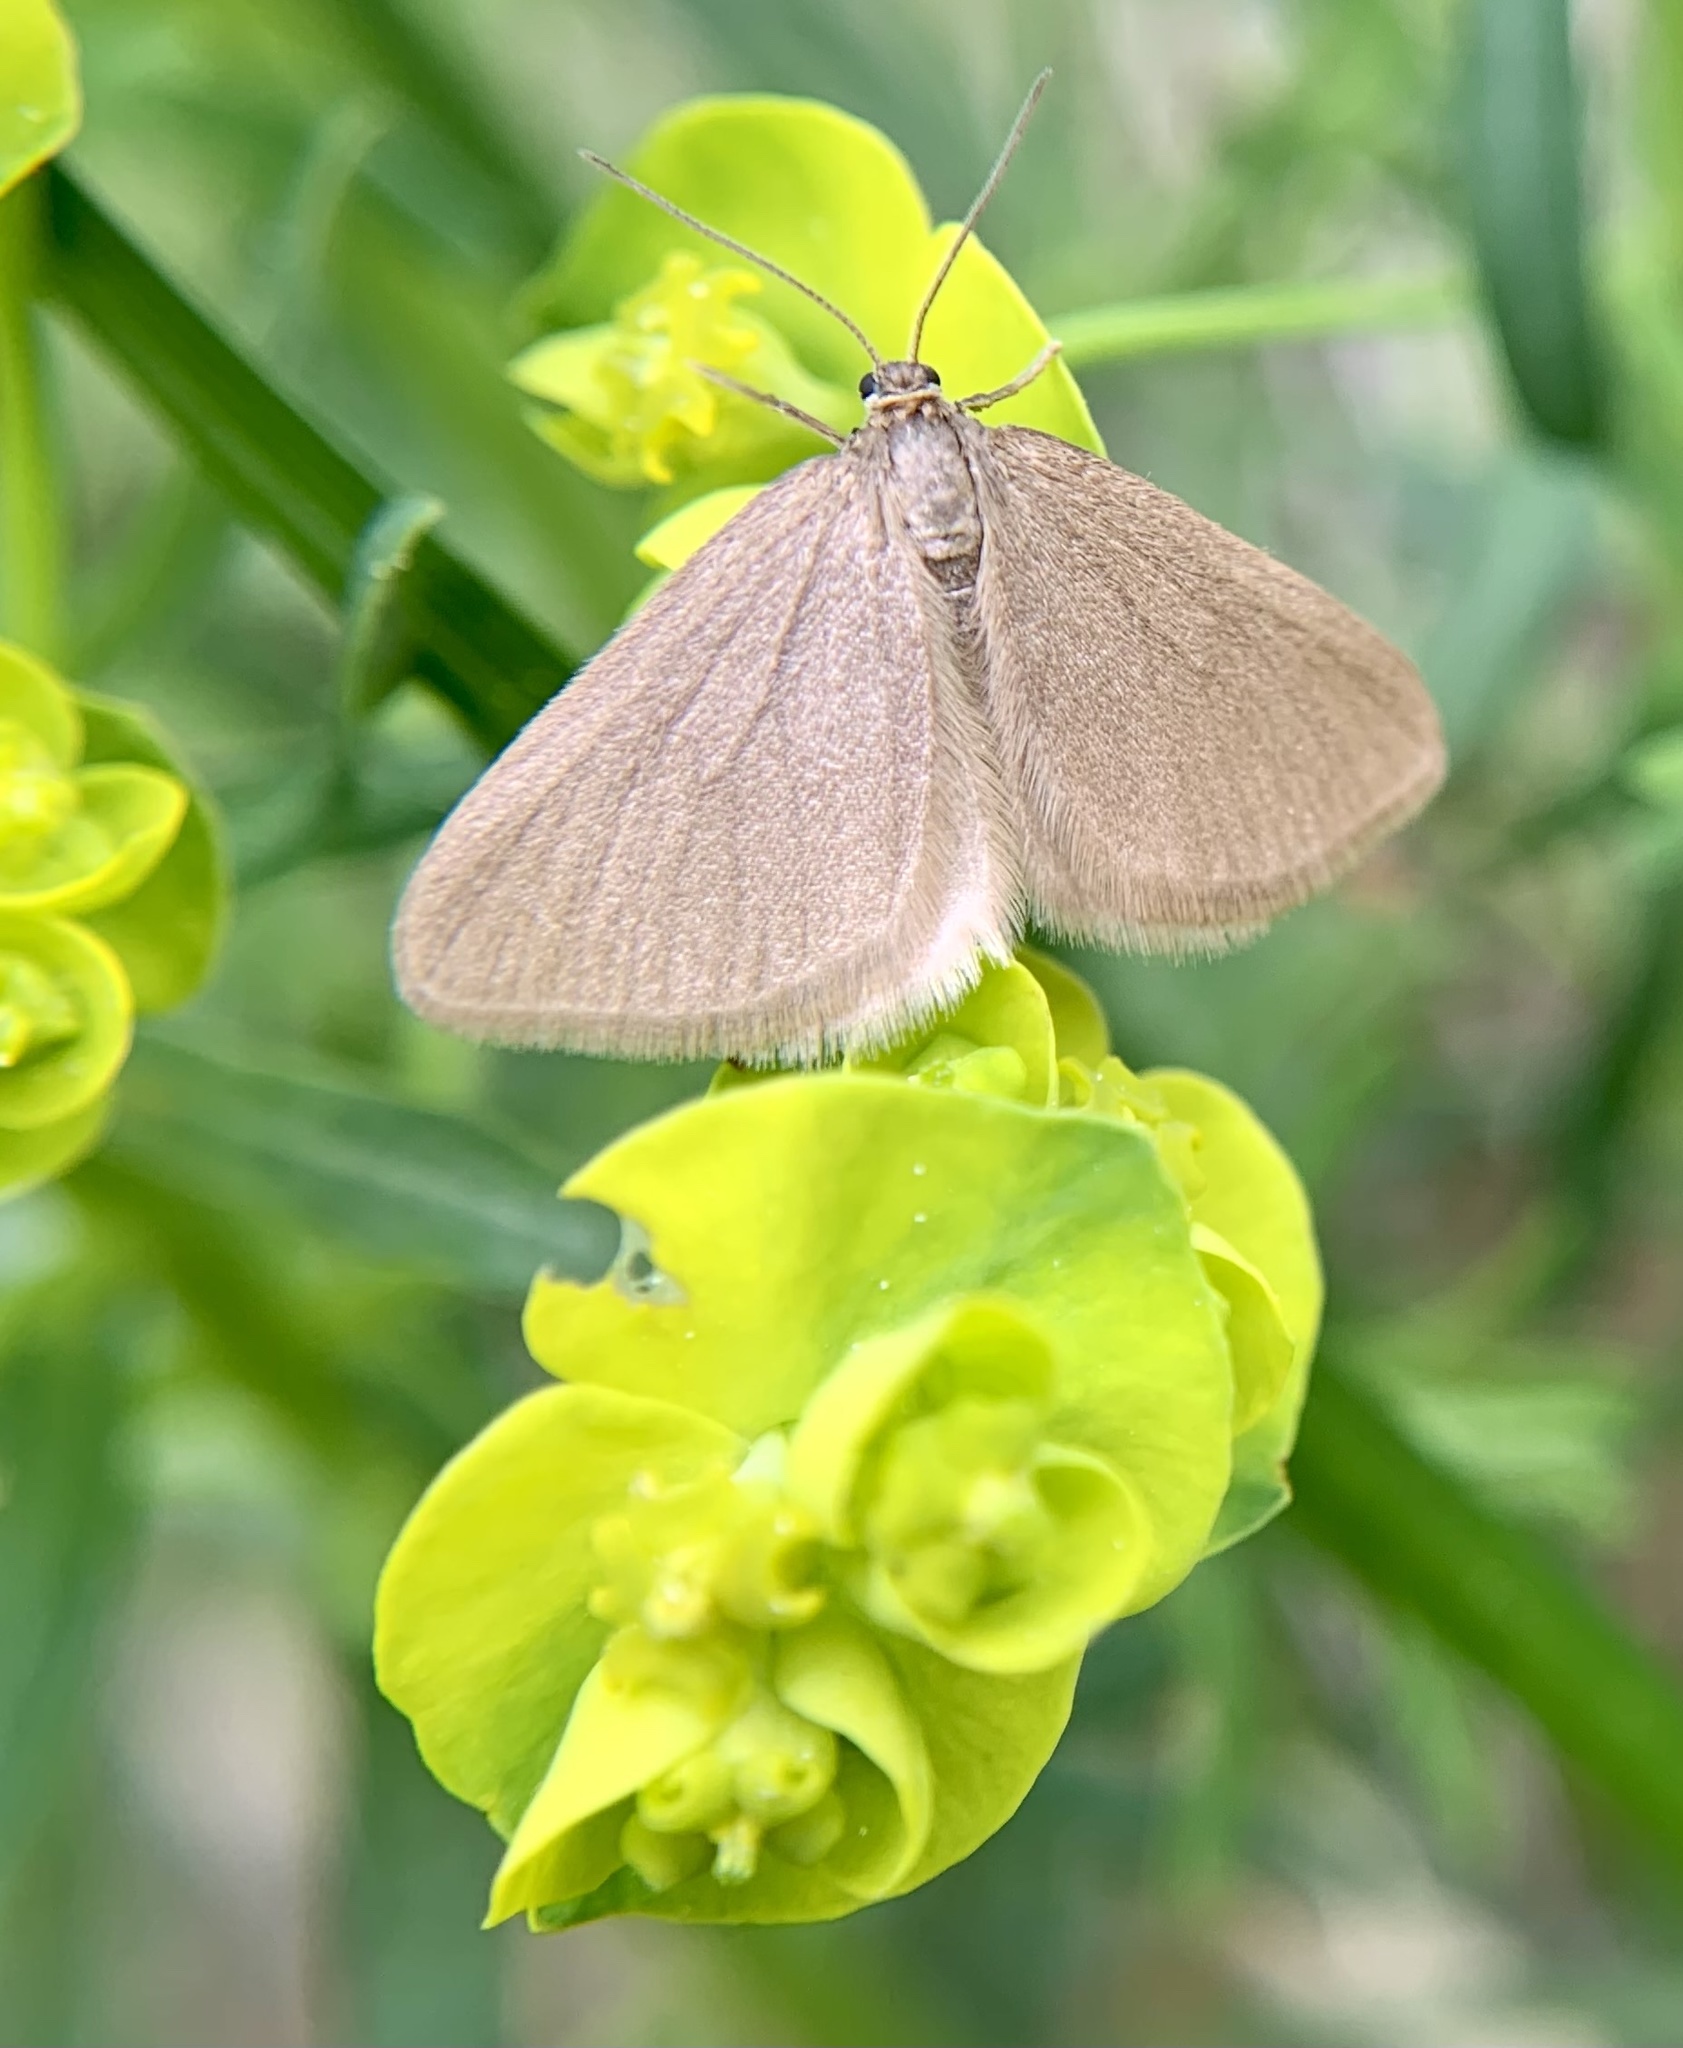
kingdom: Animalia
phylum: Arthropoda
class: Insecta
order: Lepidoptera
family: Geometridae
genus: Minoa
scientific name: Minoa murinata
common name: Drab looper
